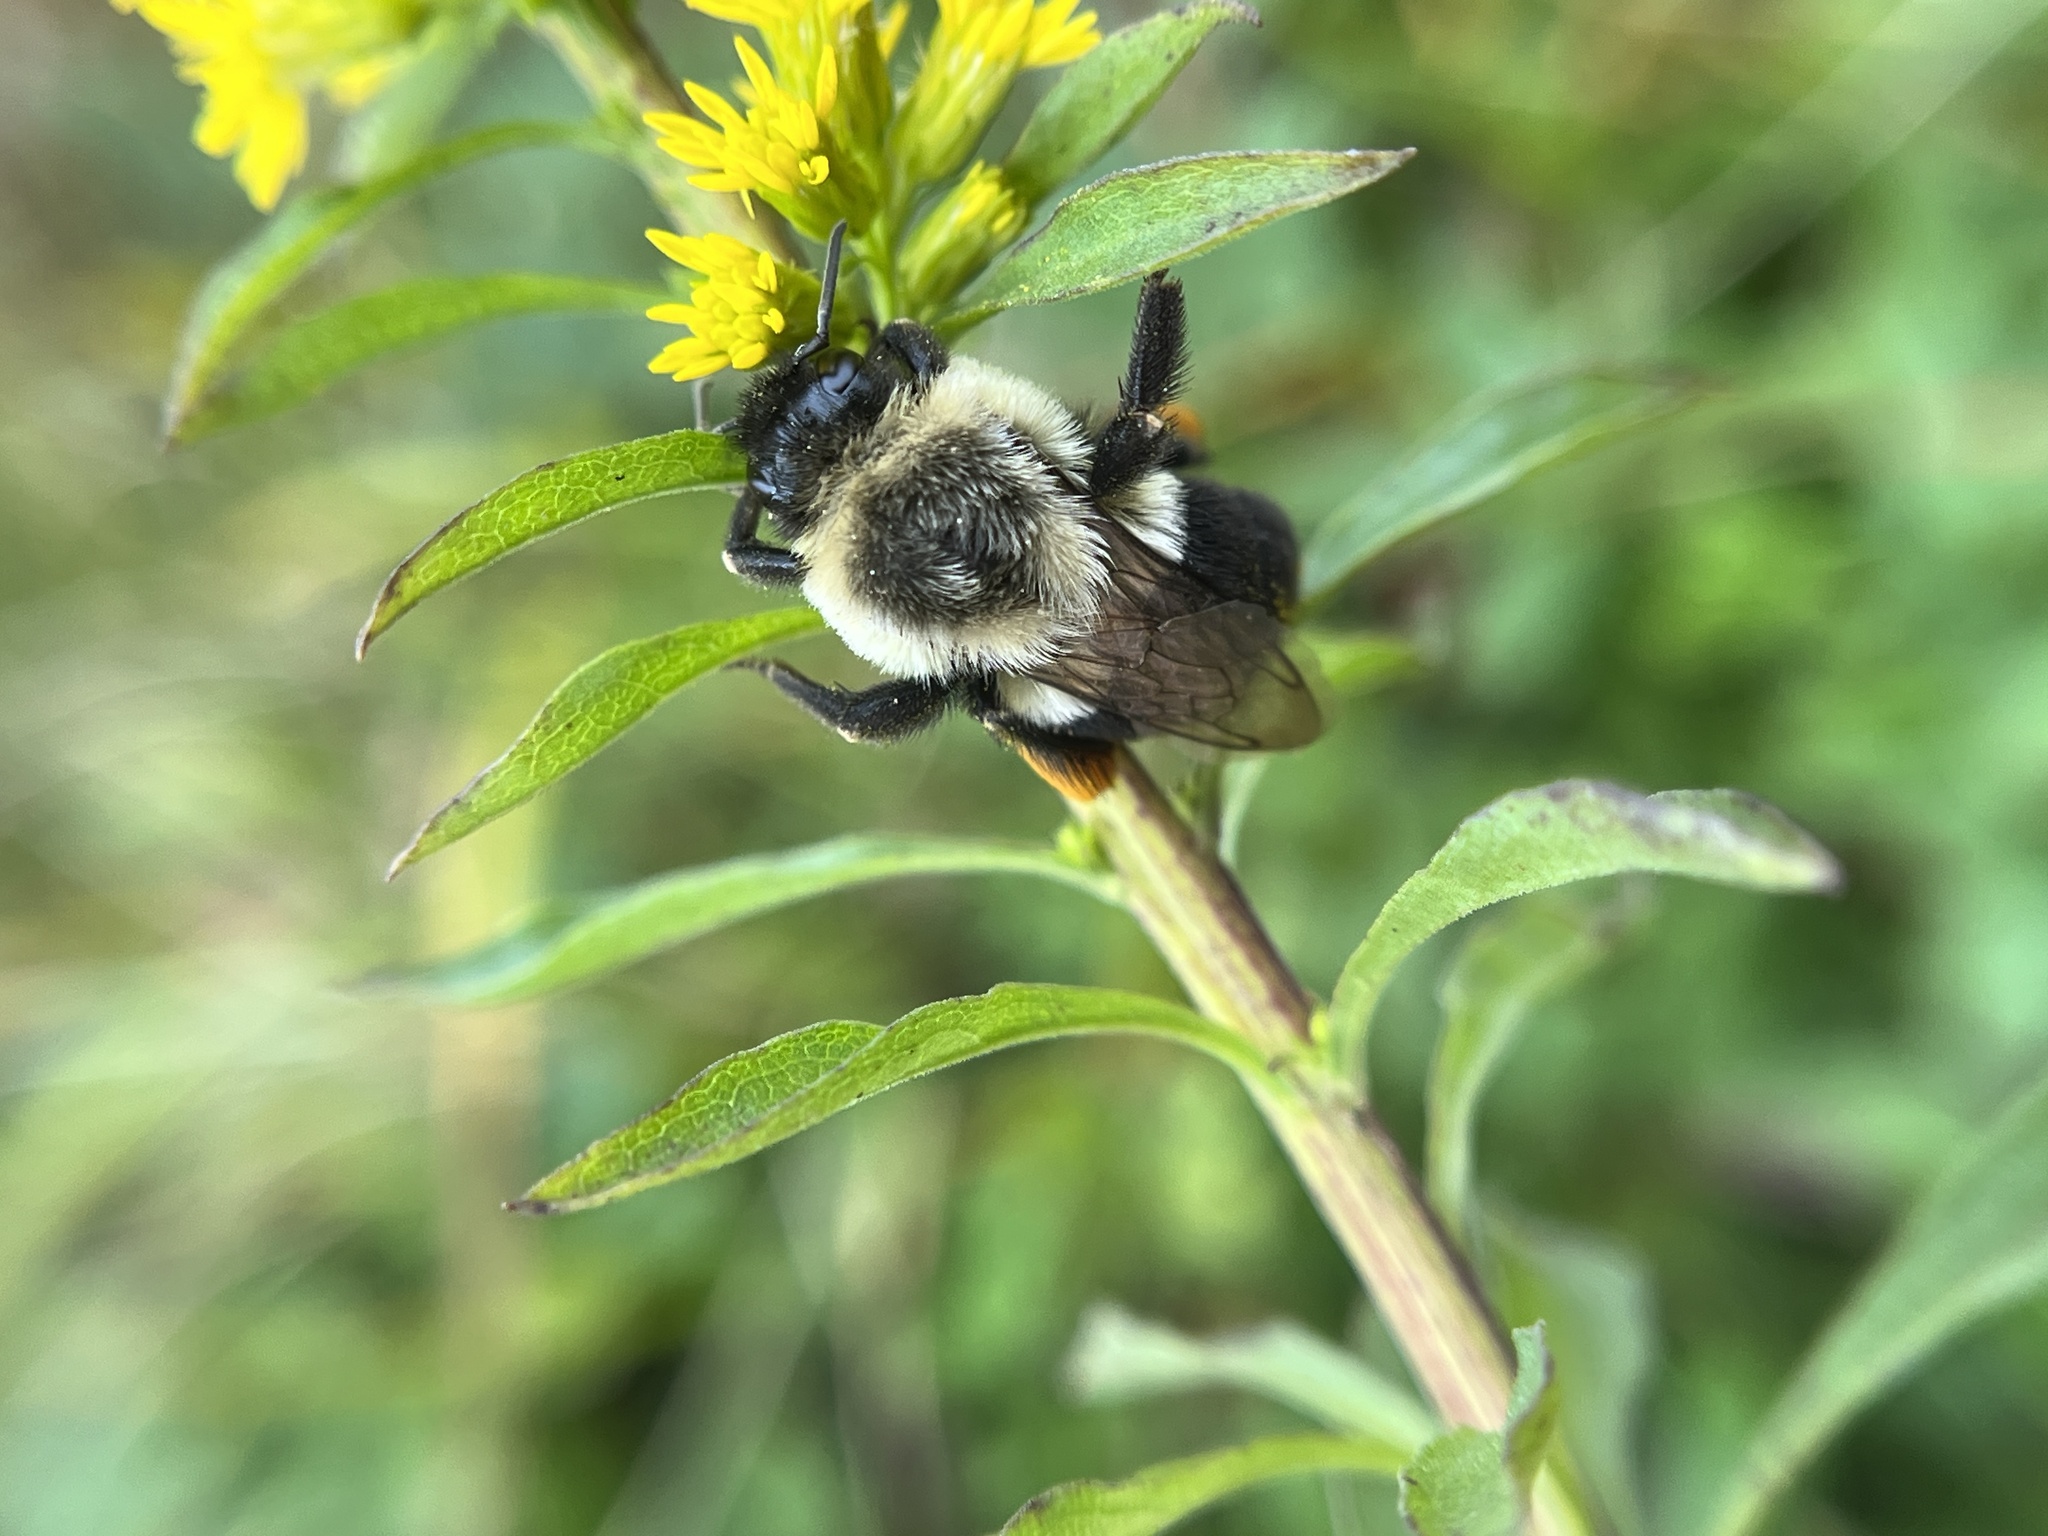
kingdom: Animalia
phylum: Arthropoda
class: Insecta
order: Hymenoptera
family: Apidae
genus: Bombus
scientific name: Bombus impatiens
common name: Common eastern bumble bee
